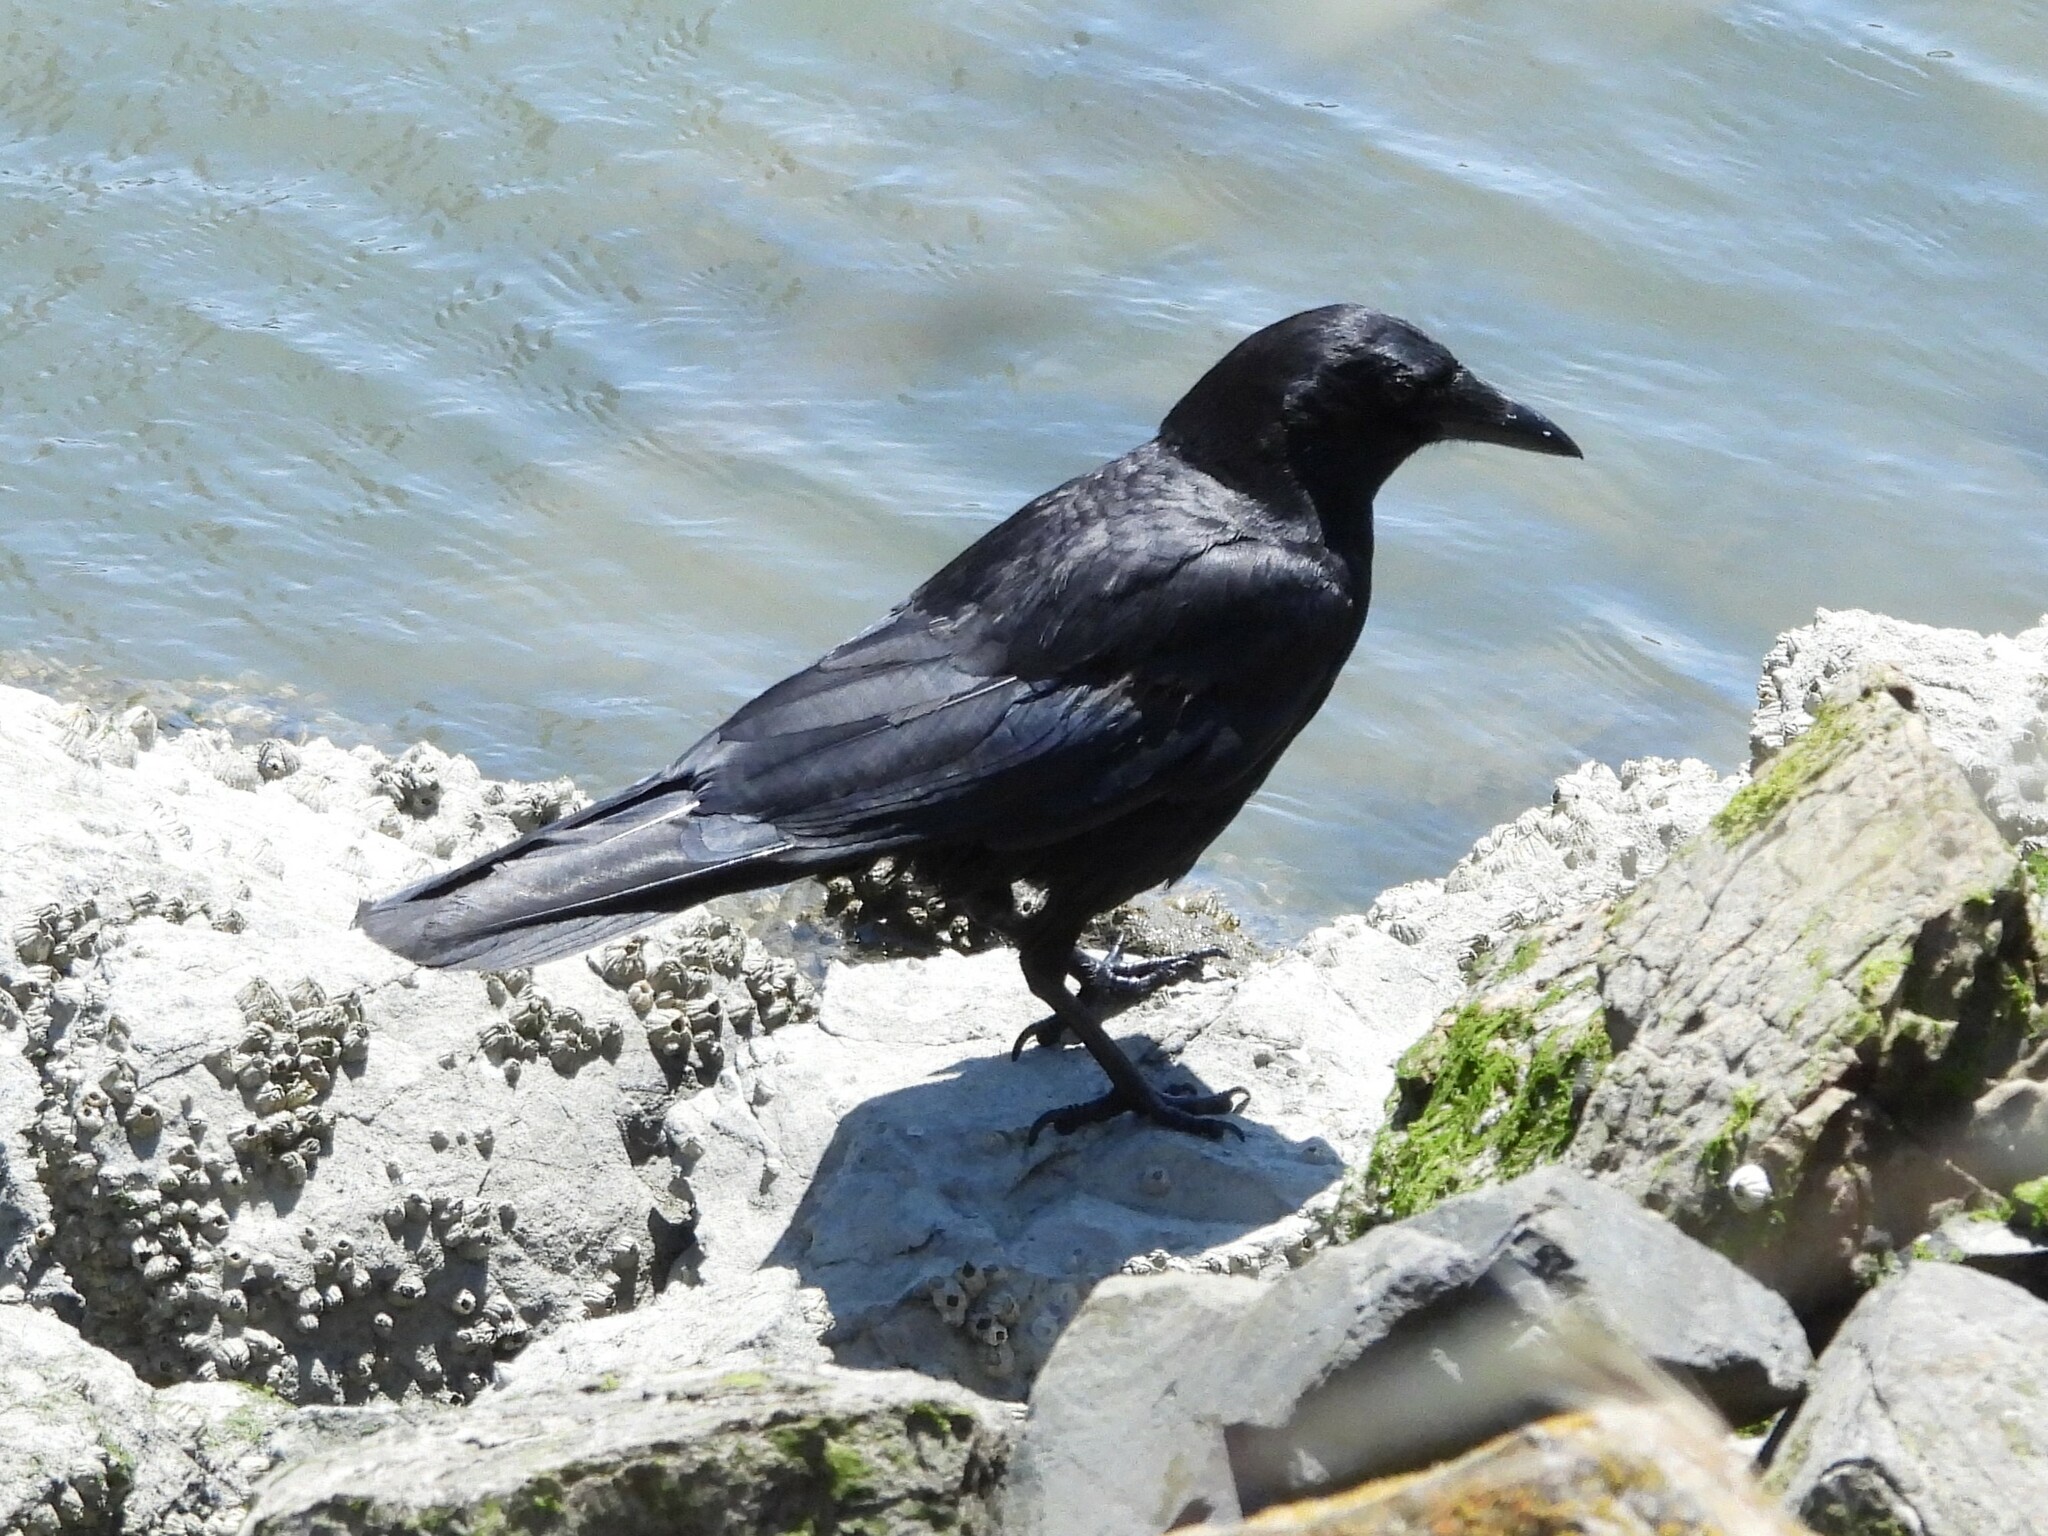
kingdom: Animalia
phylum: Chordata
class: Aves
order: Passeriformes
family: Corvidae
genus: Corvus
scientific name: Corvus brachyrhynchos
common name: American crow
